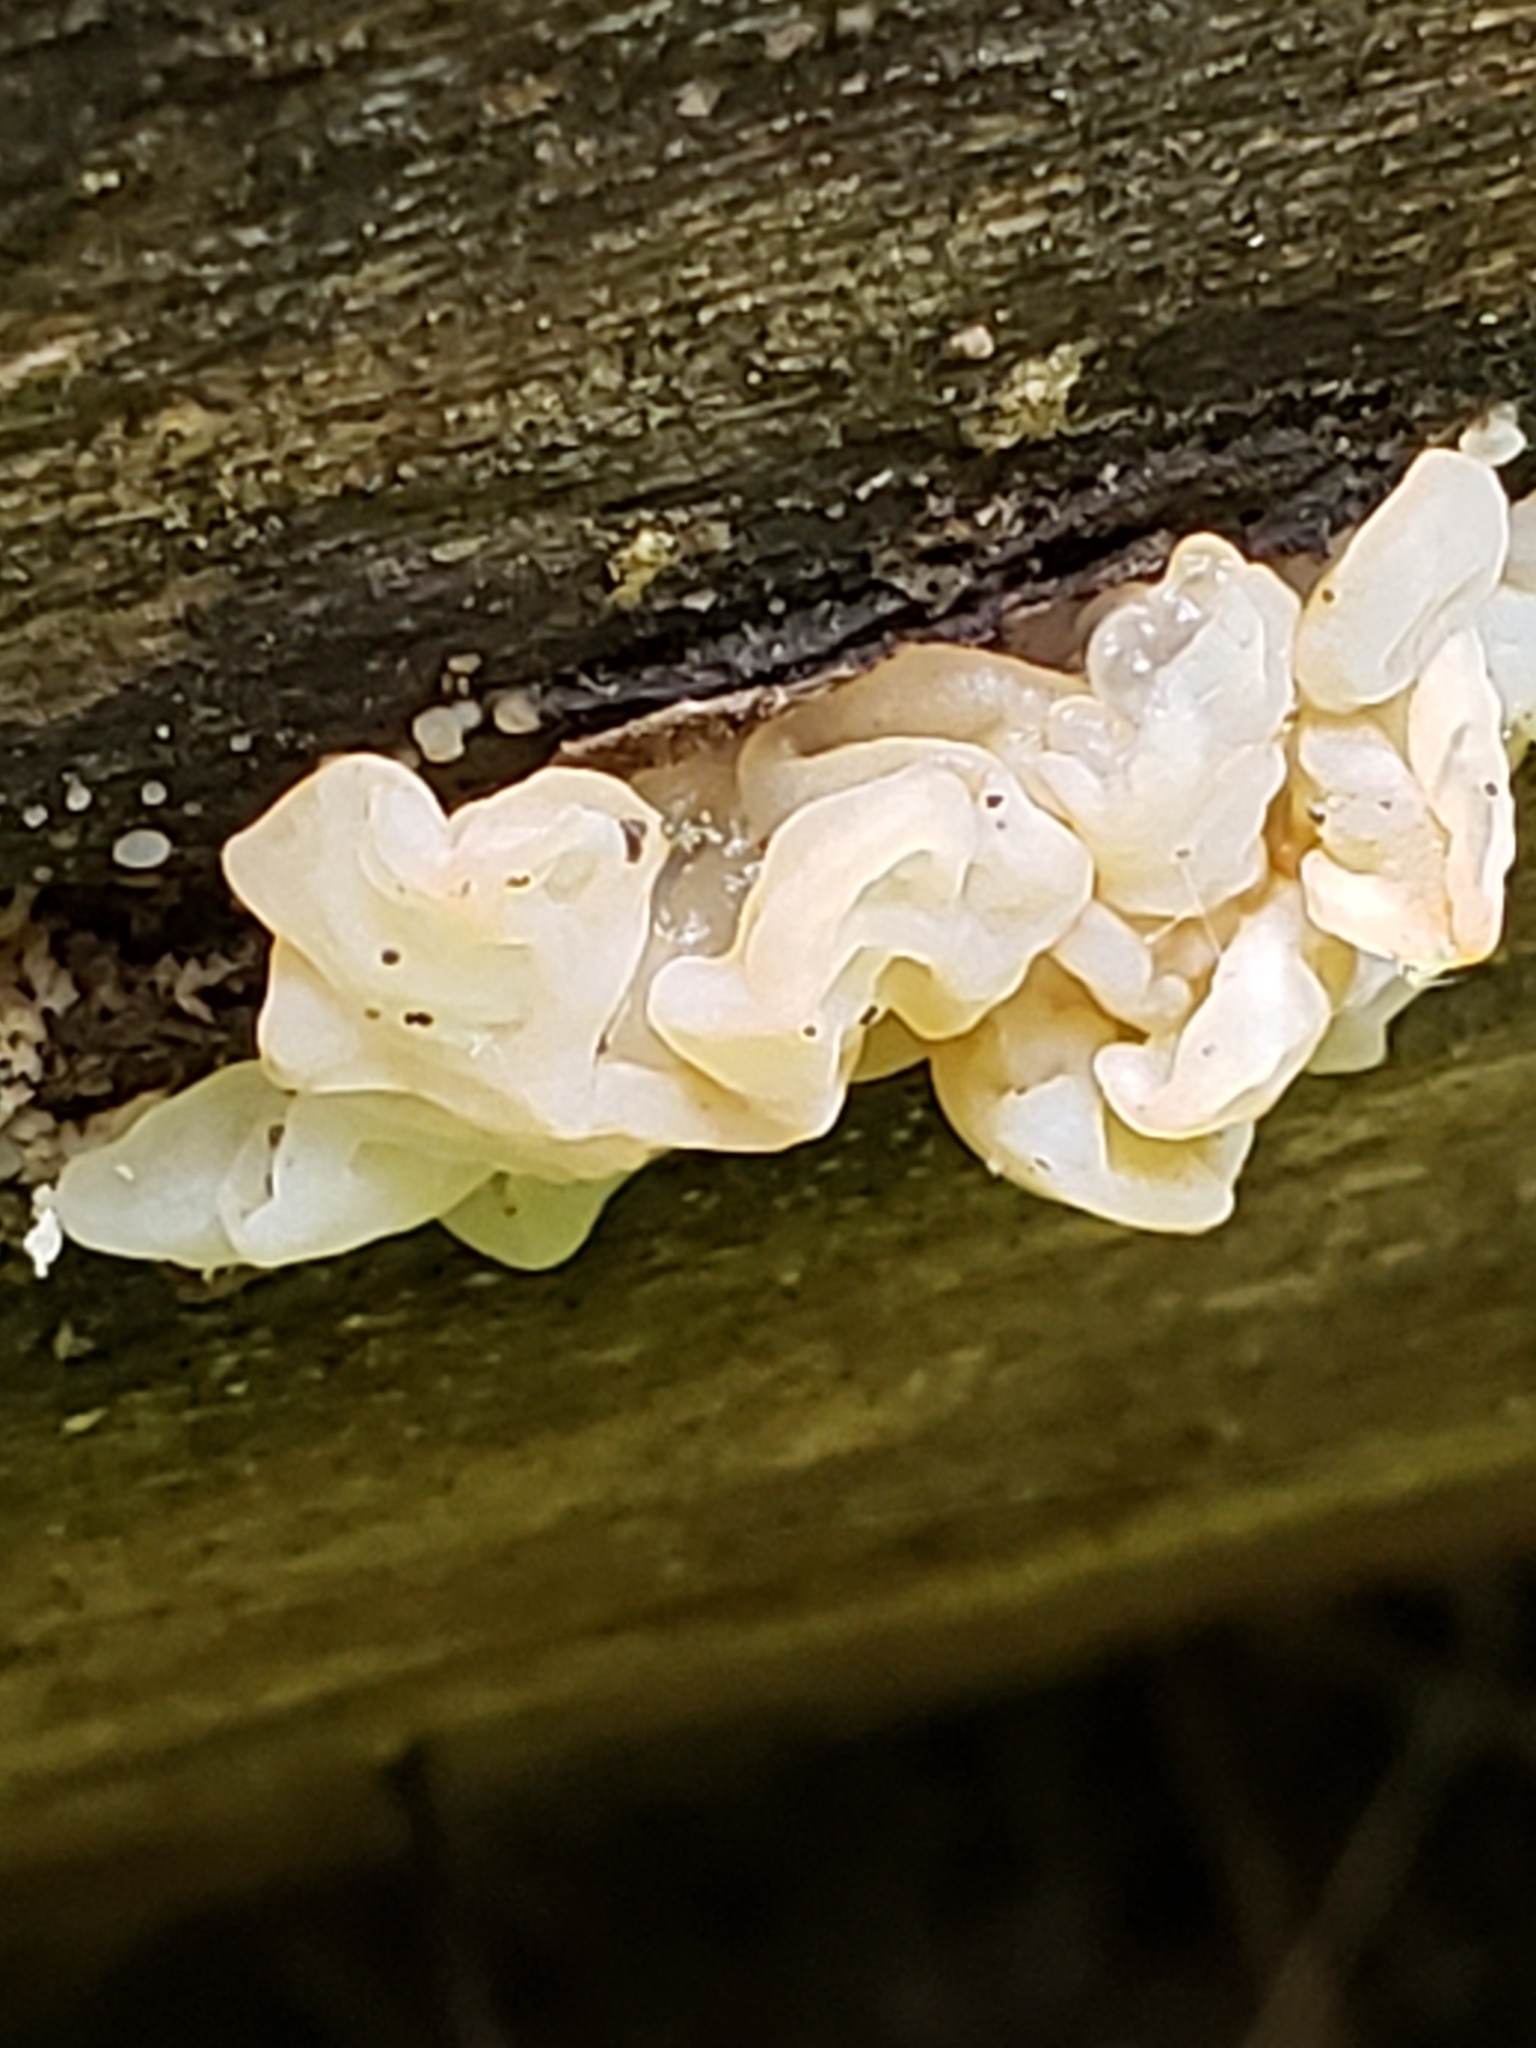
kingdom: Fungi
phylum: Basidiomycota
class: Agaricomycetes
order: Auriculariales
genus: Ductifera
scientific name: Ductifera pululahuana
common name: White jelly fungus
